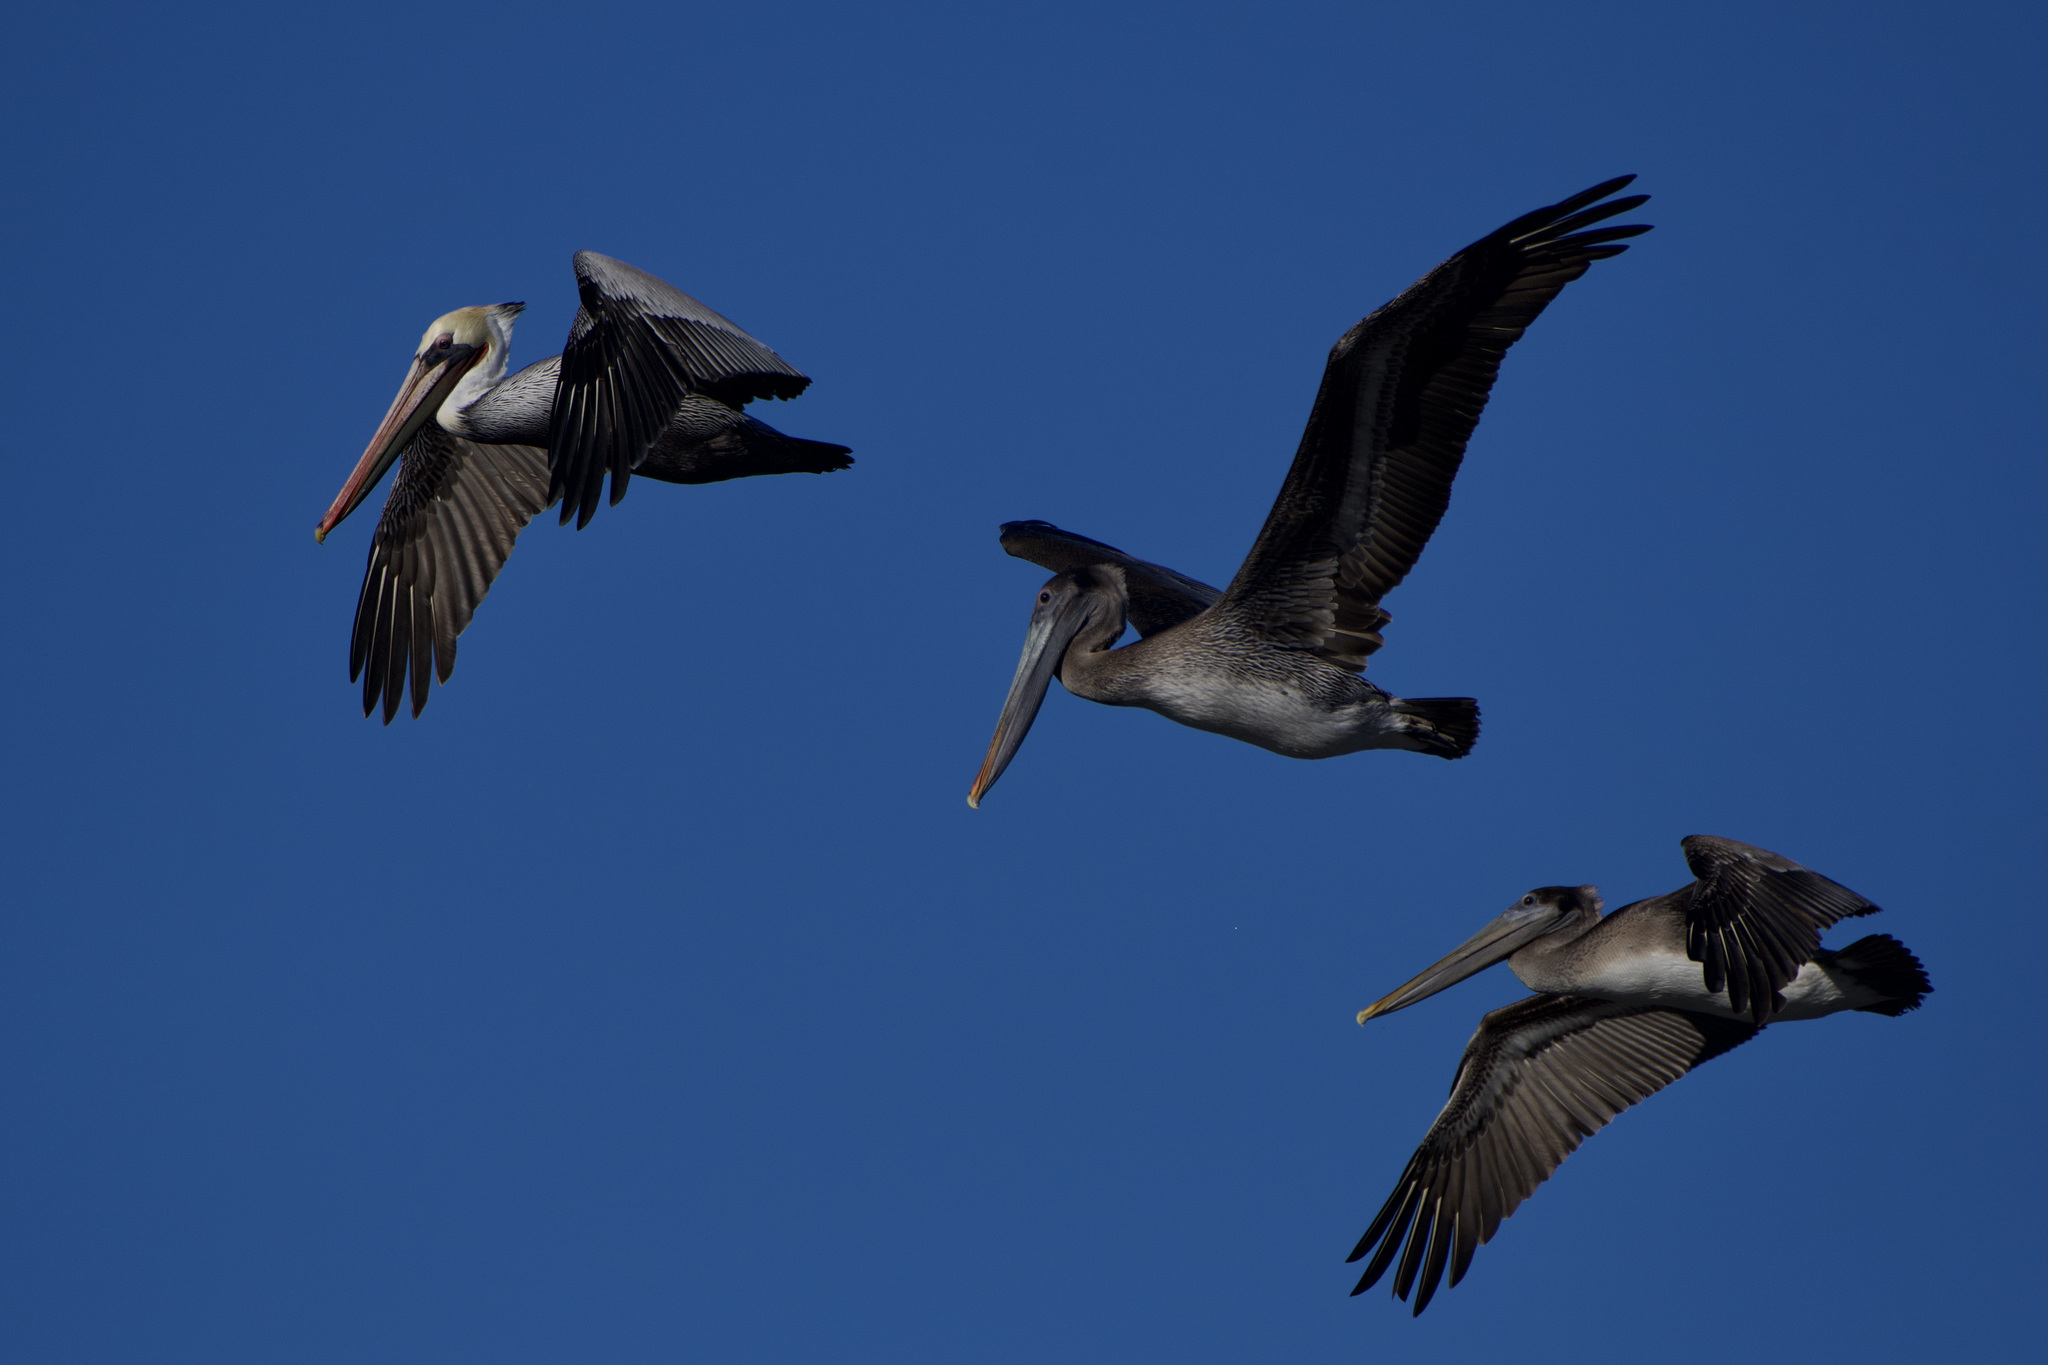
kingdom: Animalia
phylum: Chordata
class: Aves
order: Pelecaniformes
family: Pelecanidae
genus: Pelecanus
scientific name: Pelecanus occidentalis
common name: Brown pelican
